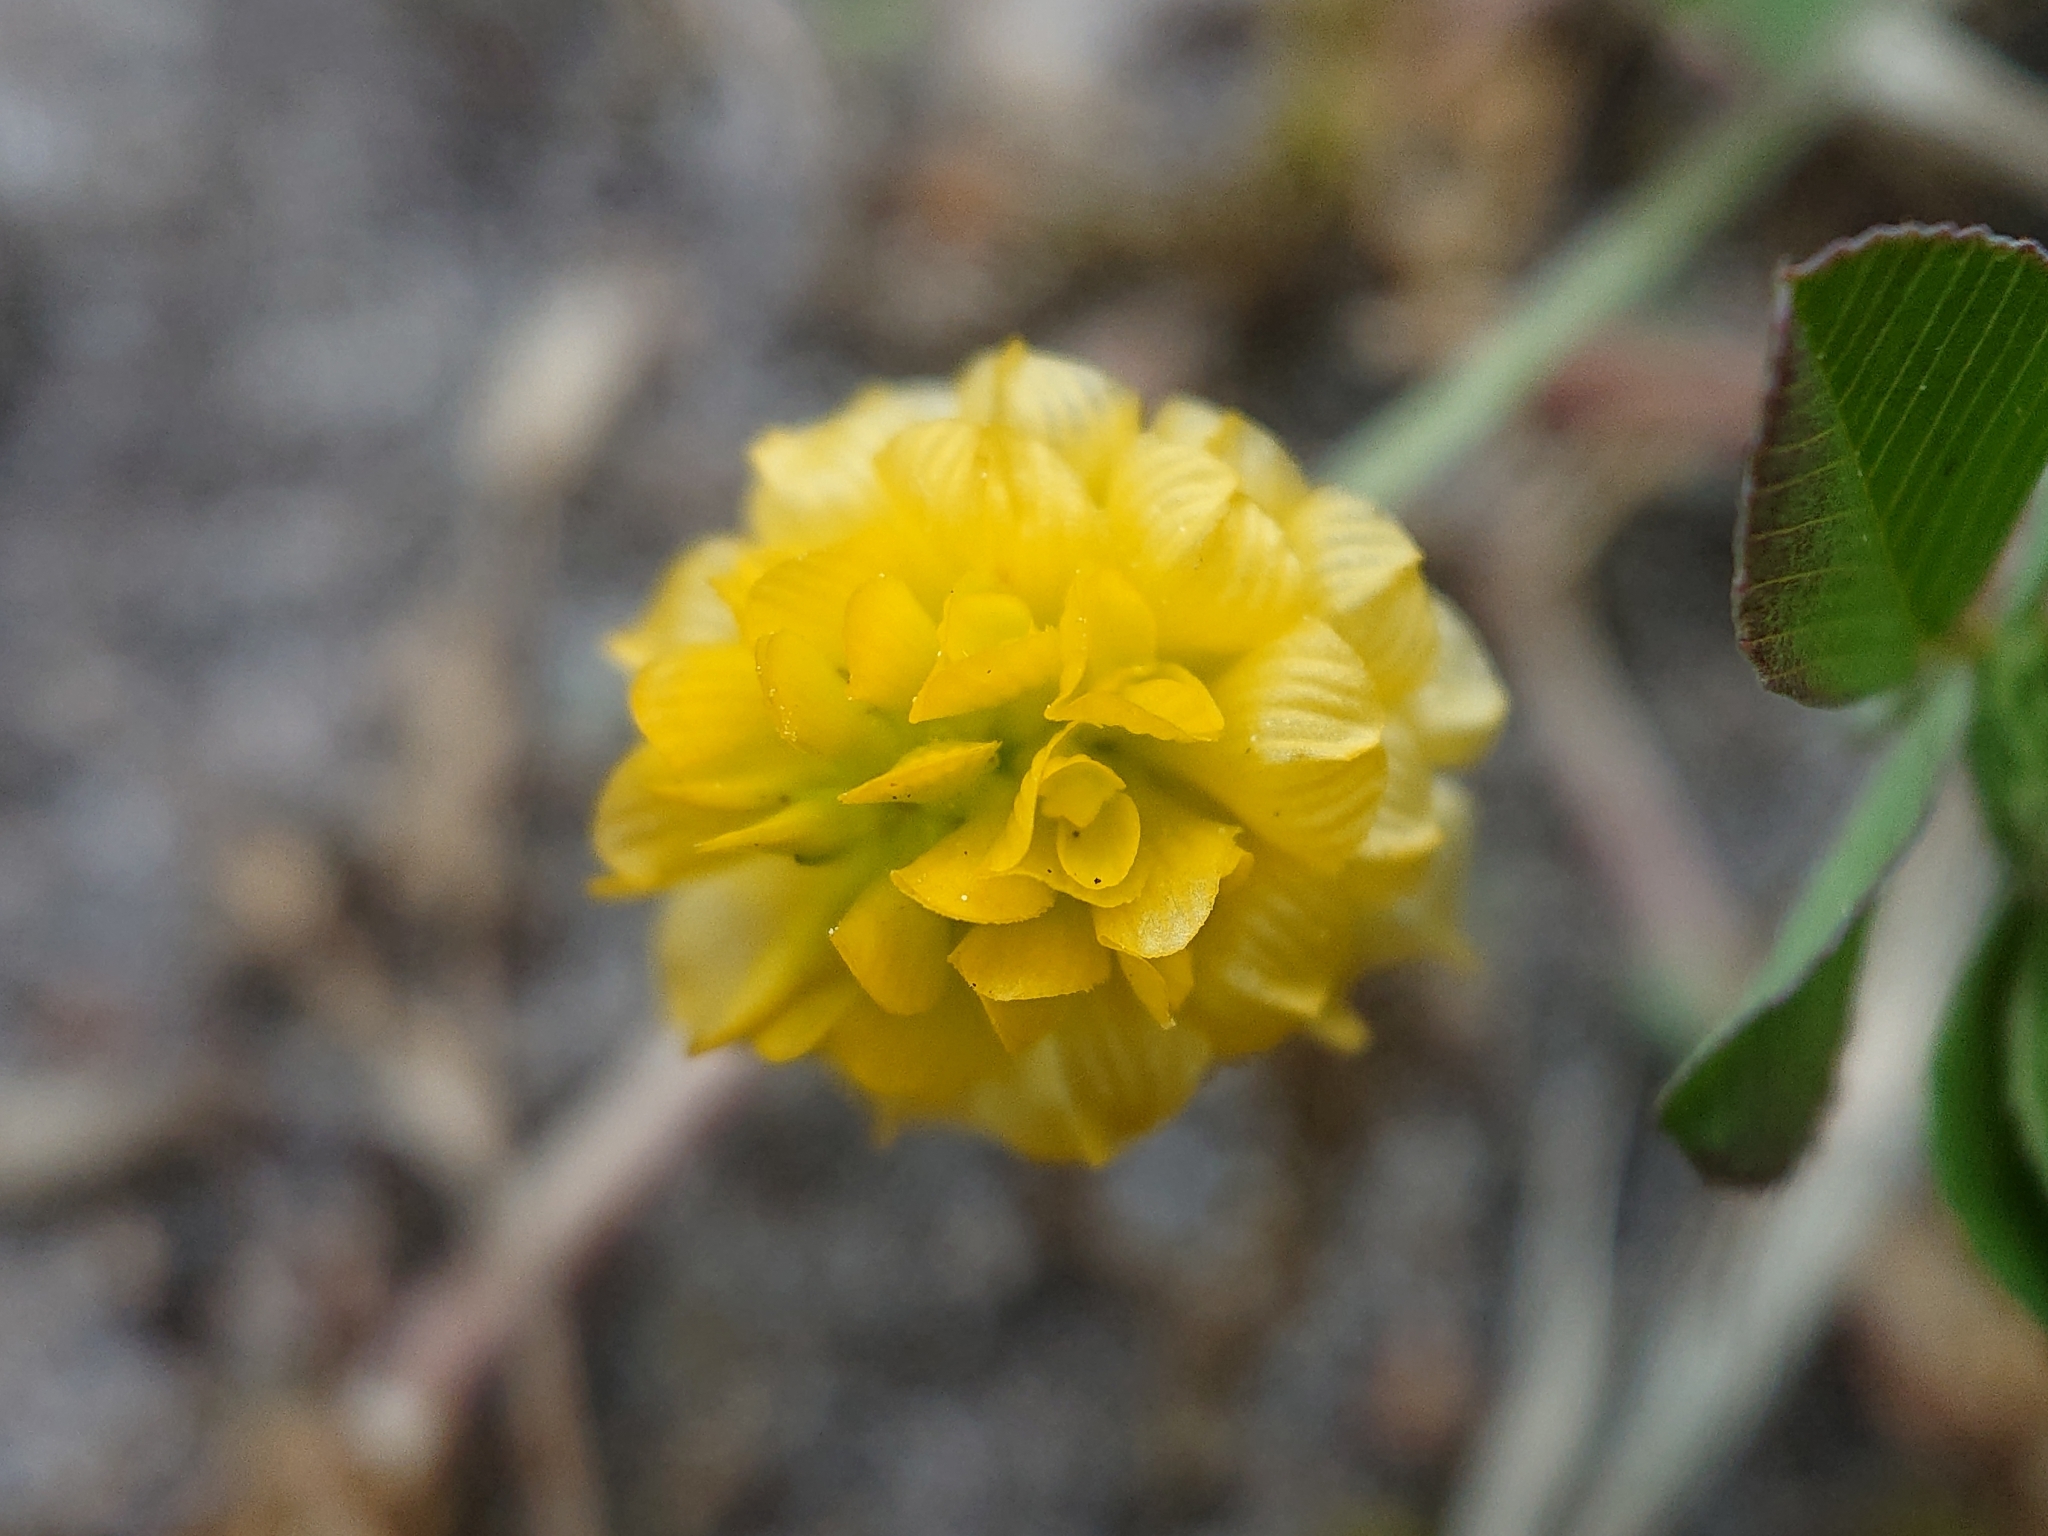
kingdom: Plantae
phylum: Tracheophyta
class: Magnoliopsida
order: Fabales
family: Fabaceae
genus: Trifolium
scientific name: Trifolium campestre
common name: Field clover
